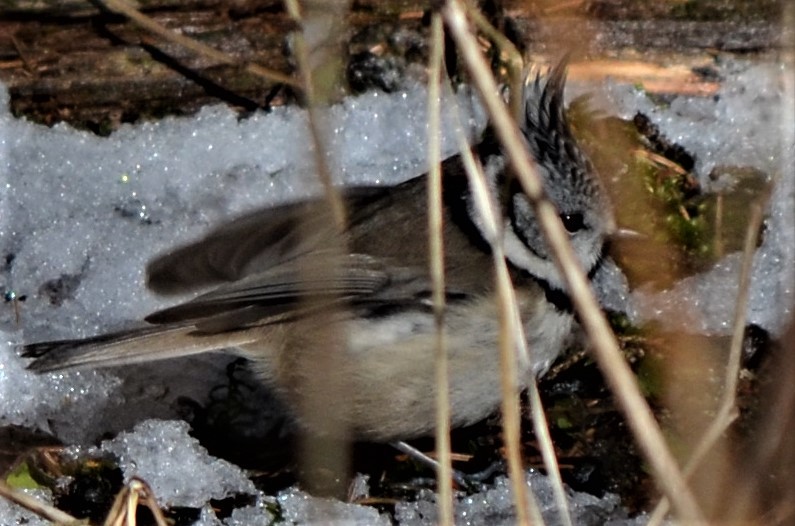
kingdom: Animalia
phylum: Chordata
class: Aves
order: Passeriformes
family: Paridae
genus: Lophophanes
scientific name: Lophophanes cristatus
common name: European crested tit
